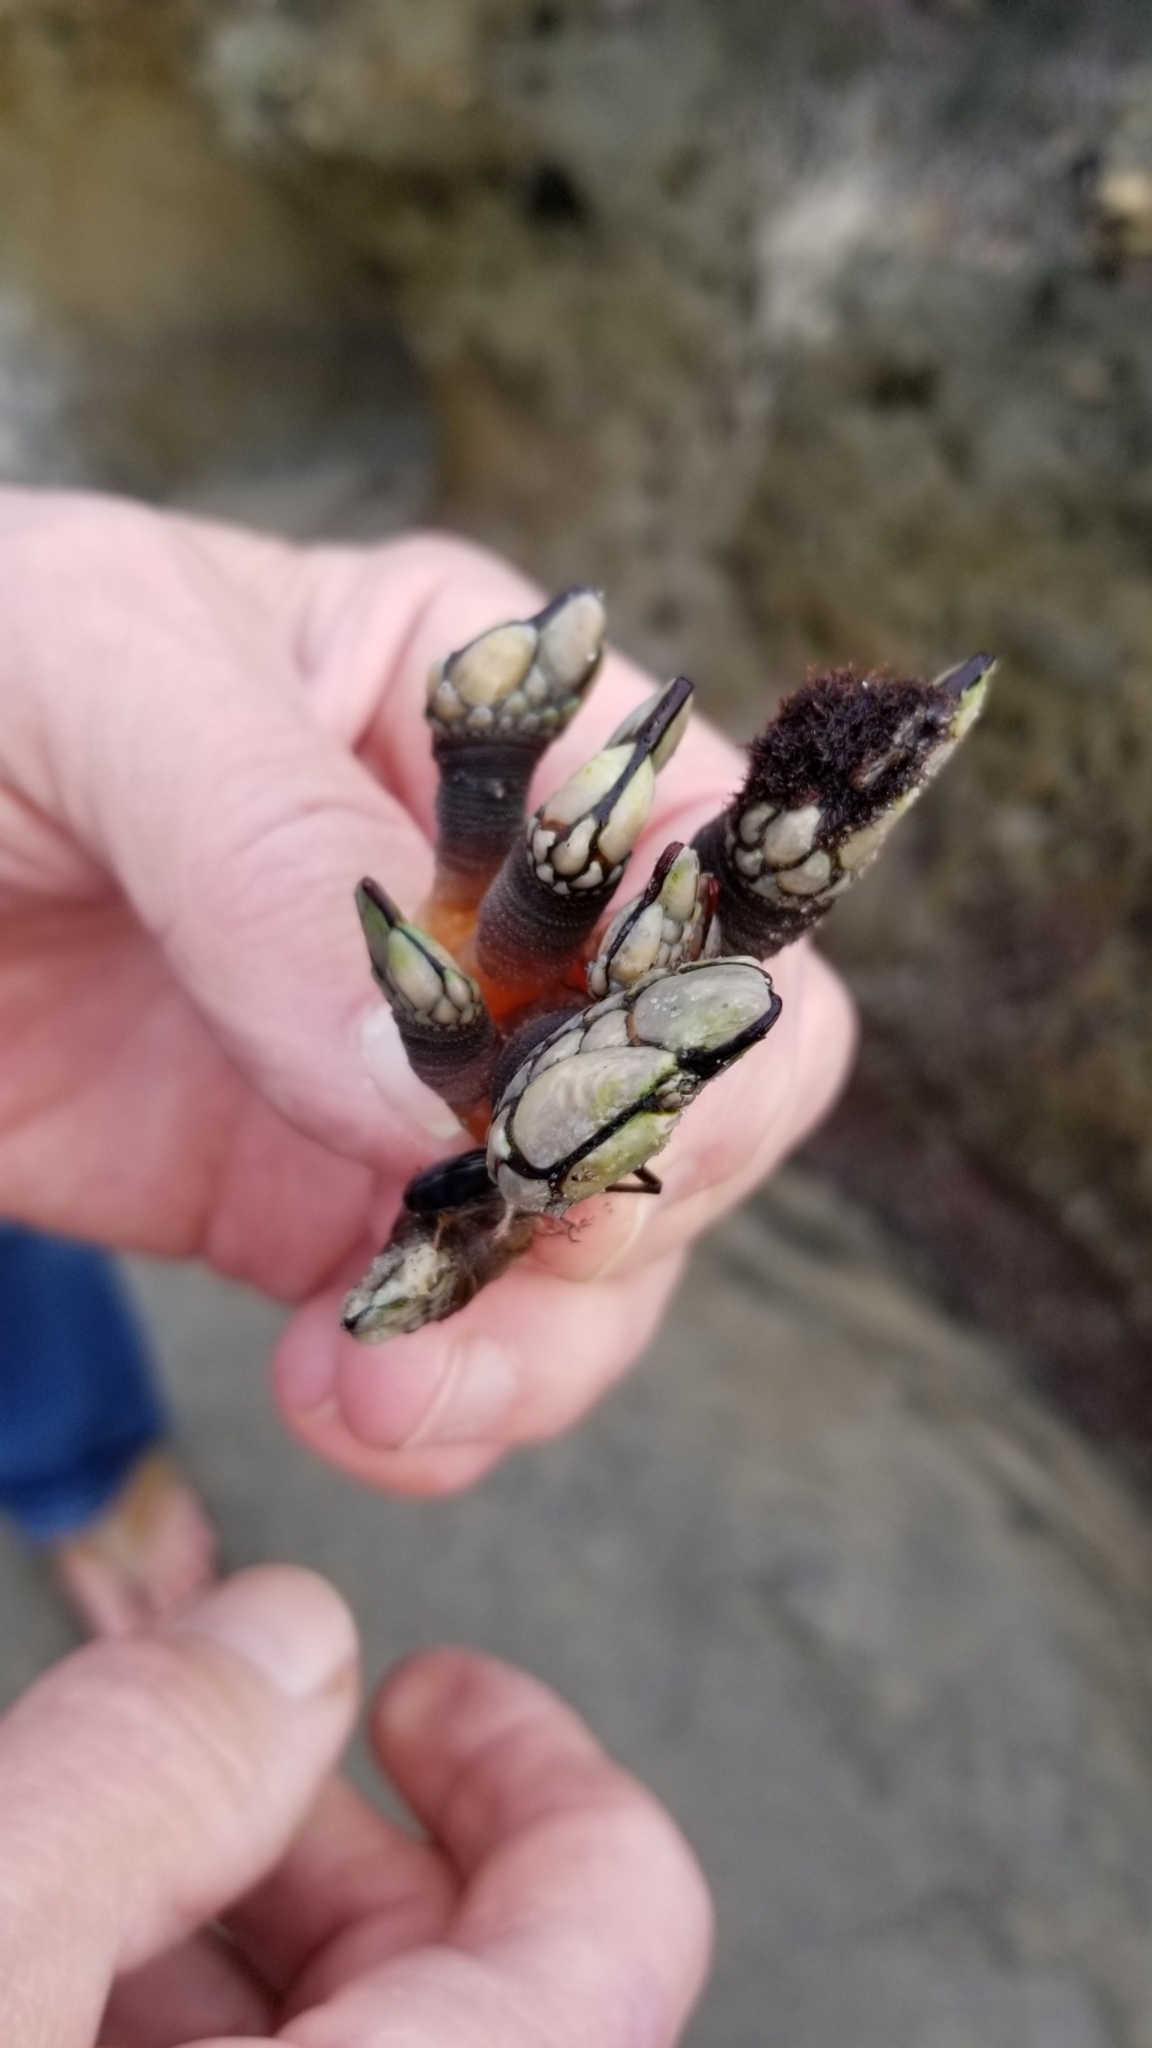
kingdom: Animalia
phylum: Arthropoda
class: Maxillopoda
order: Pedunculata
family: Pollicipedidae
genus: Pollicipes
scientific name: Pollicipes polymerus
